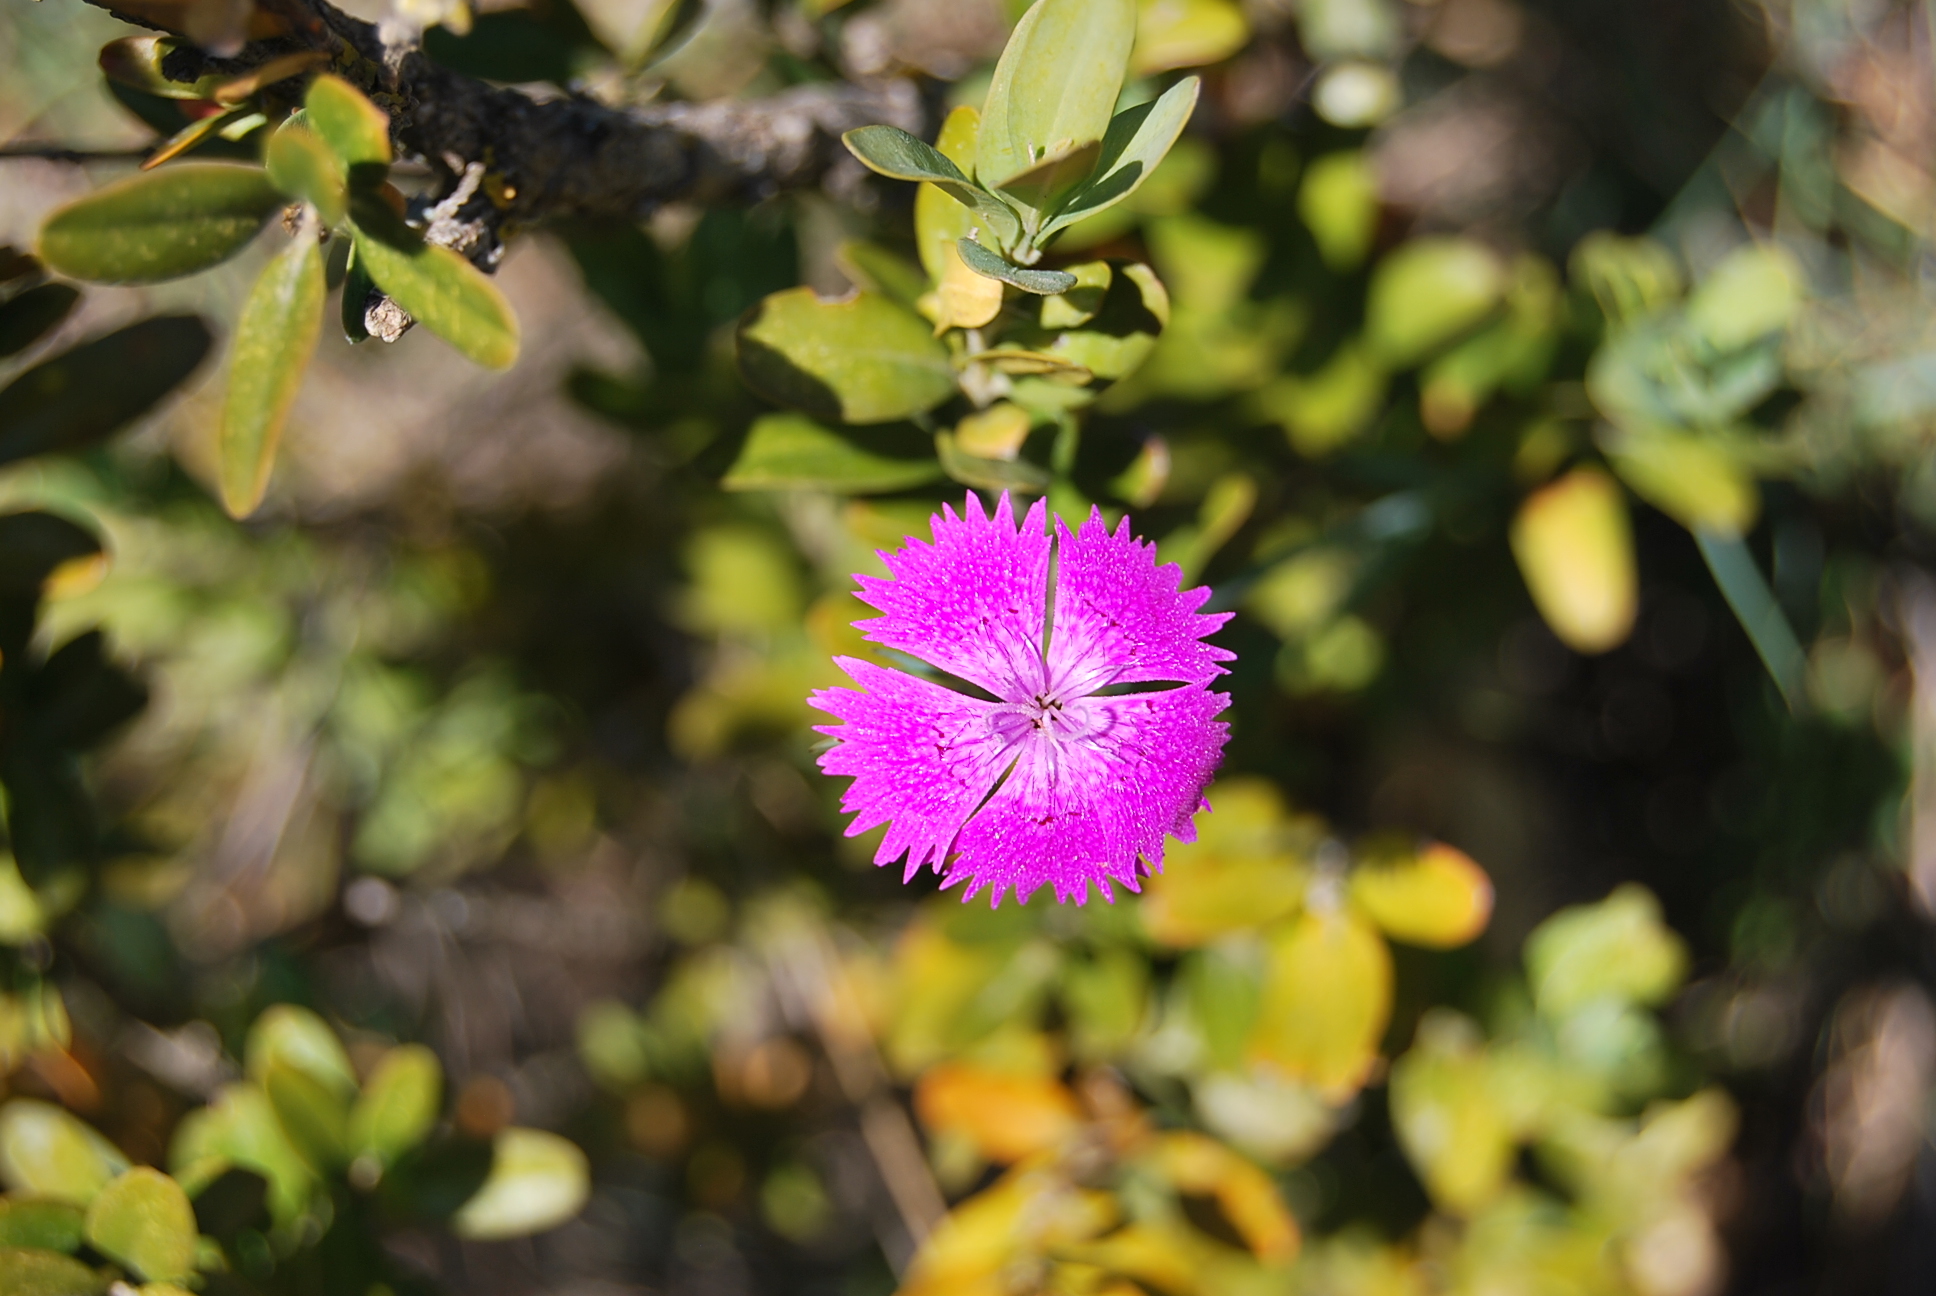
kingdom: Plantae
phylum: Tracheophyta
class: Magnoliopsida
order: Caryophyllales
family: Caryophyllaceae
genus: Dianthus
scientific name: Dianthus seguieri
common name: Ragged pink
